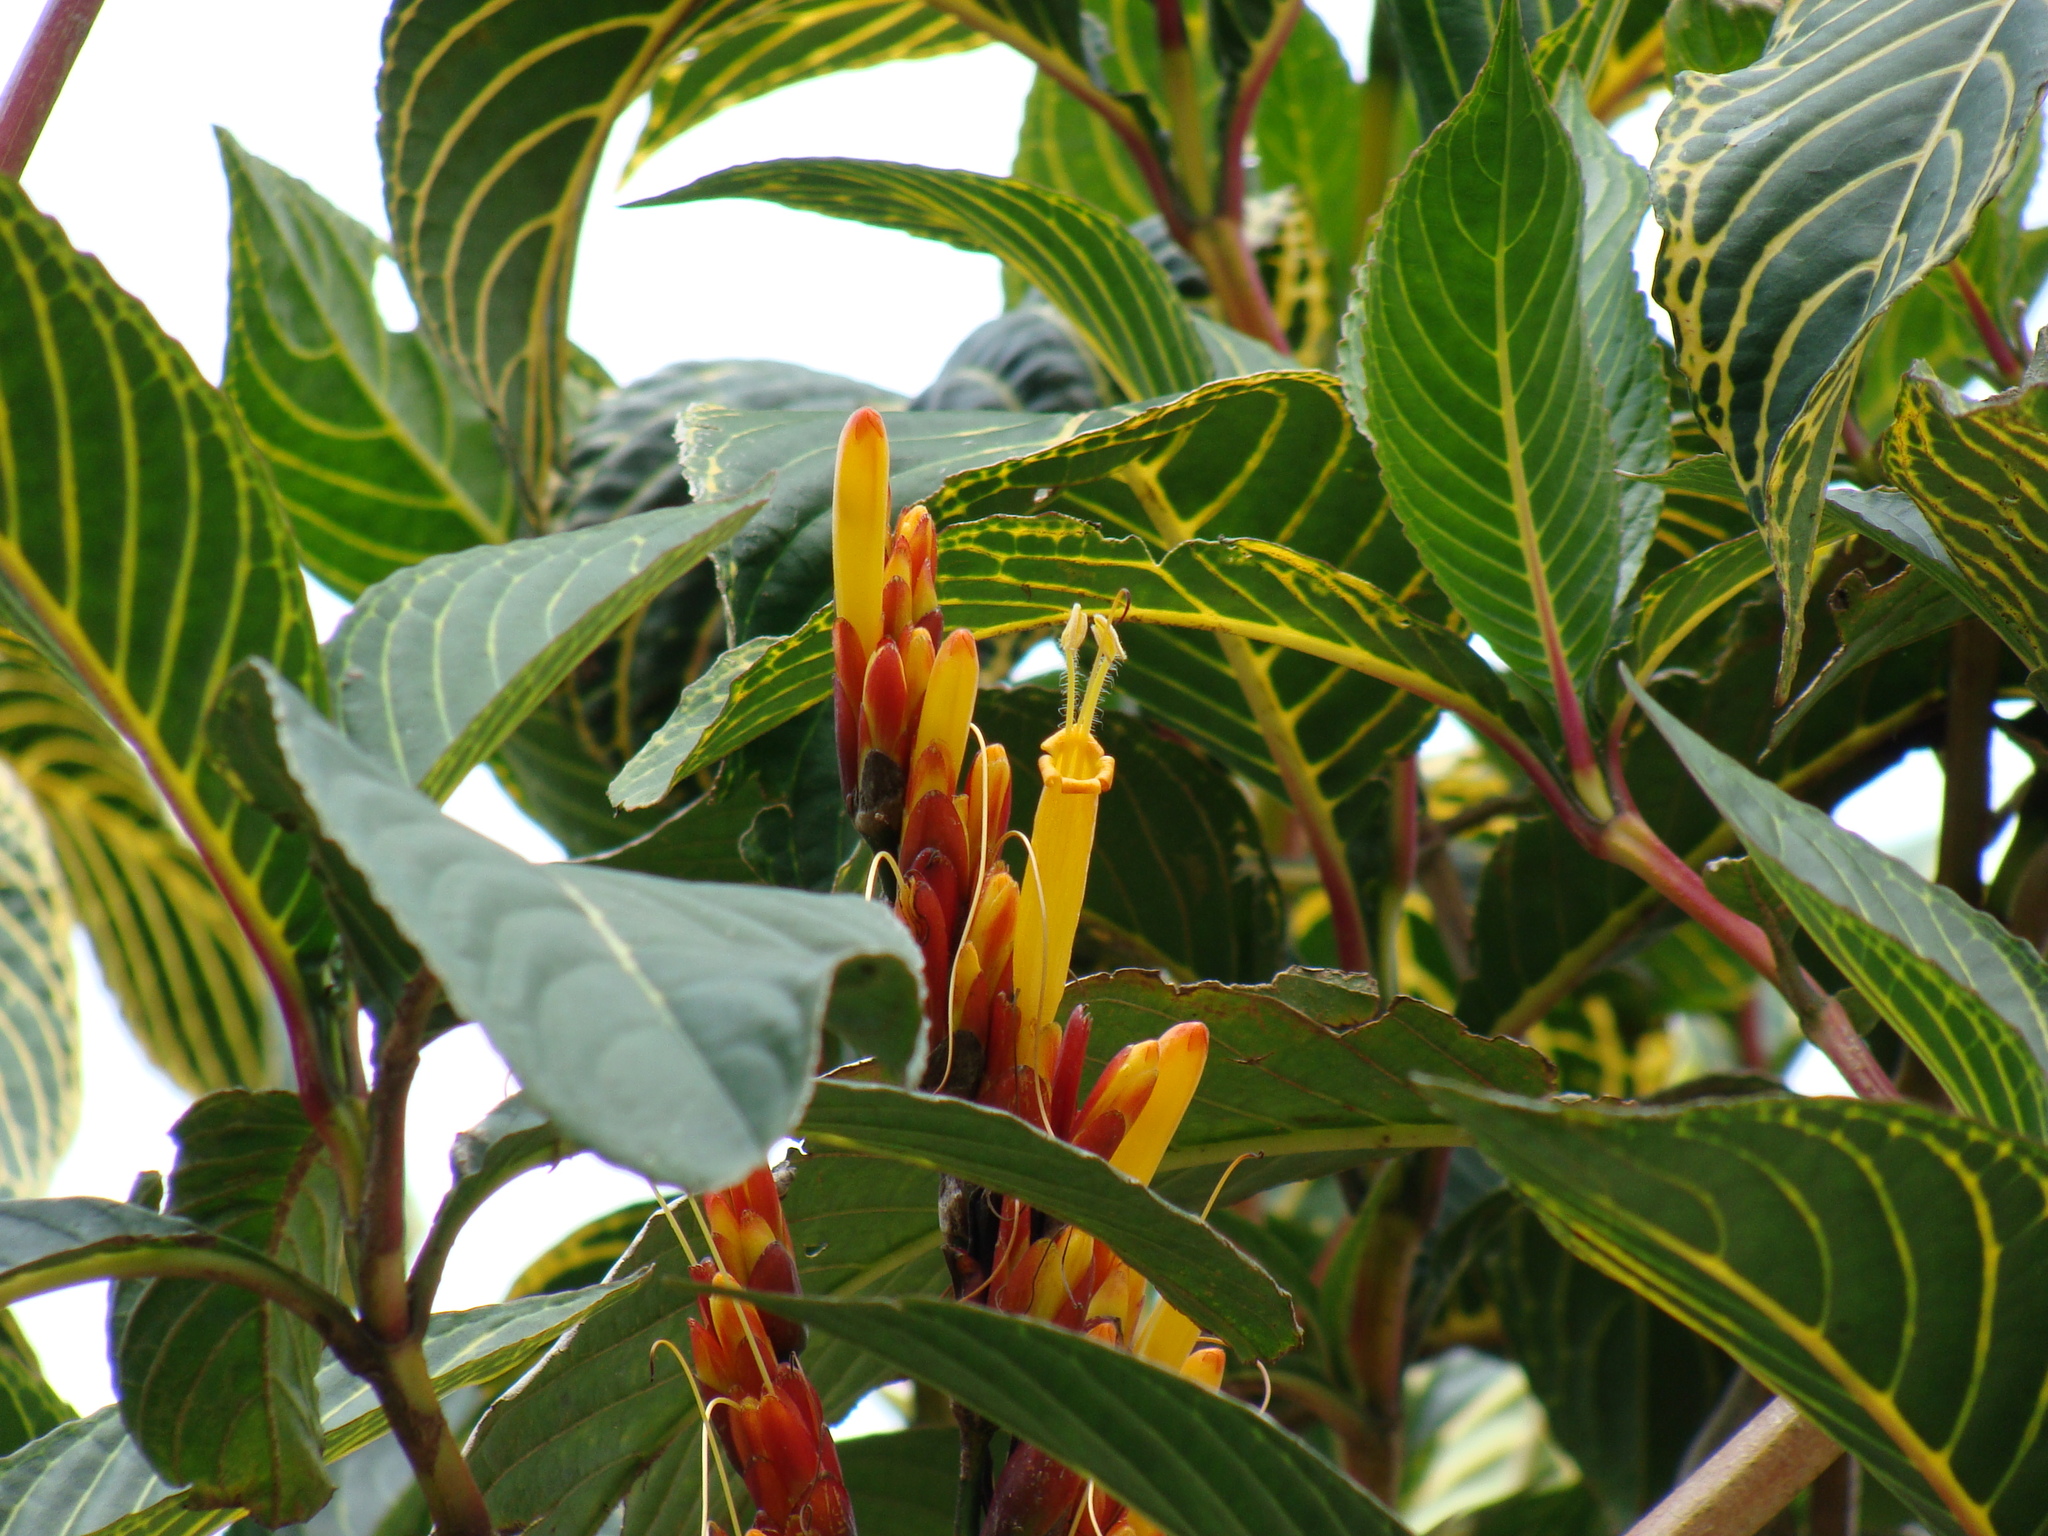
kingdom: Plantae
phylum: Tracheophyta
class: Magnoliopsida
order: Lamiales
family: Acanthaceae
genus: Sanchezia
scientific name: Sanchezia parvibracteata
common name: Sanchezia
